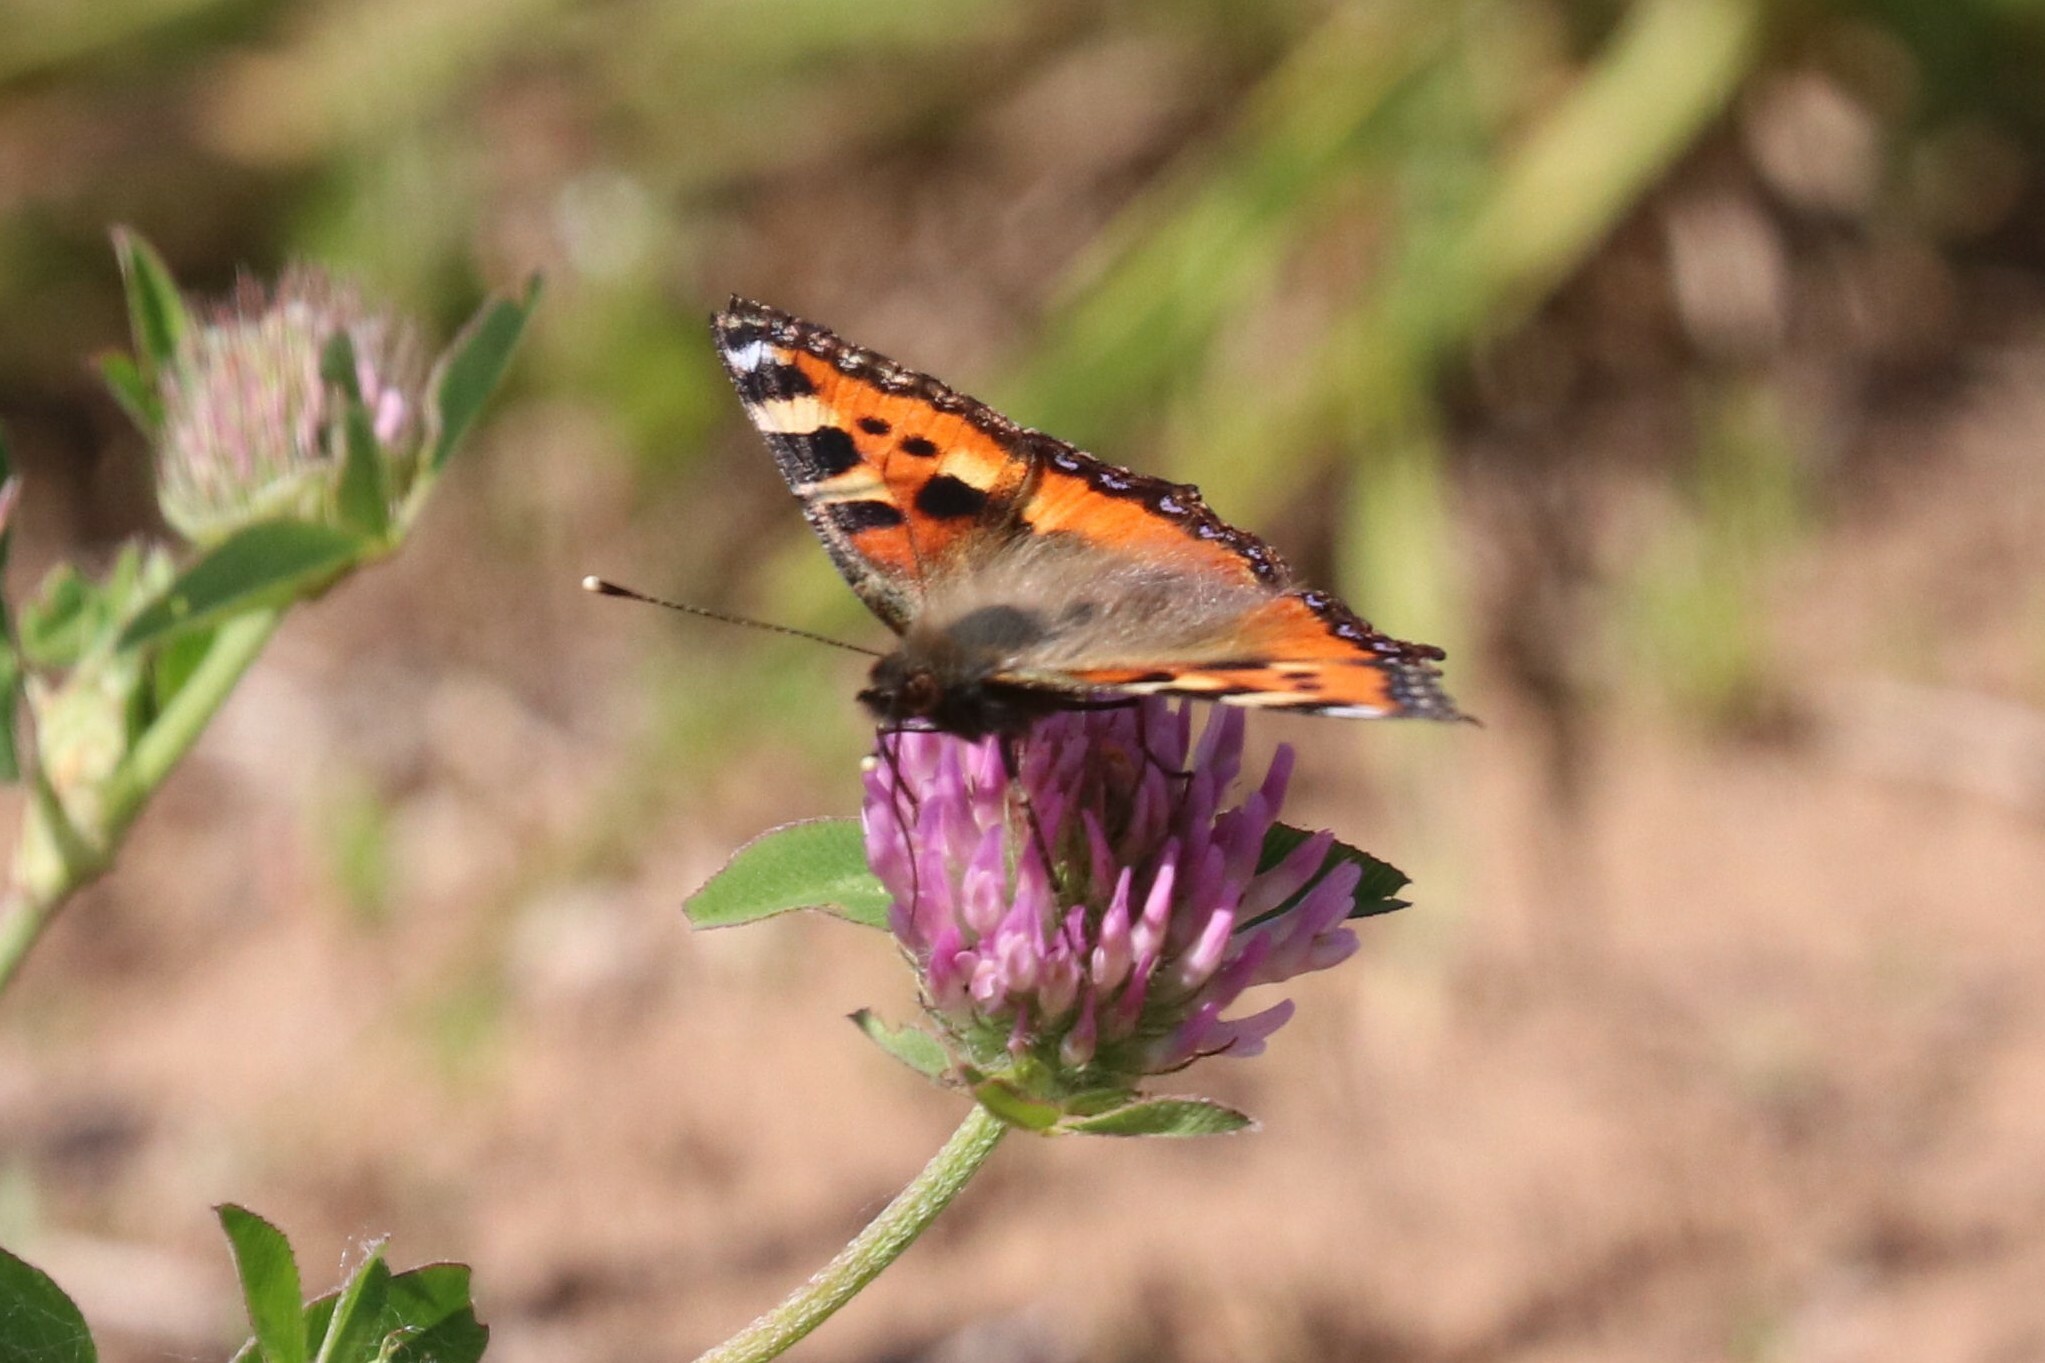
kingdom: Animalia
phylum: Arthropoda
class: Insecta
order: Lepidoptera
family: Nymphalidae
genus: Aglais
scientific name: Aglais urticae
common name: Small tortoiseshell
